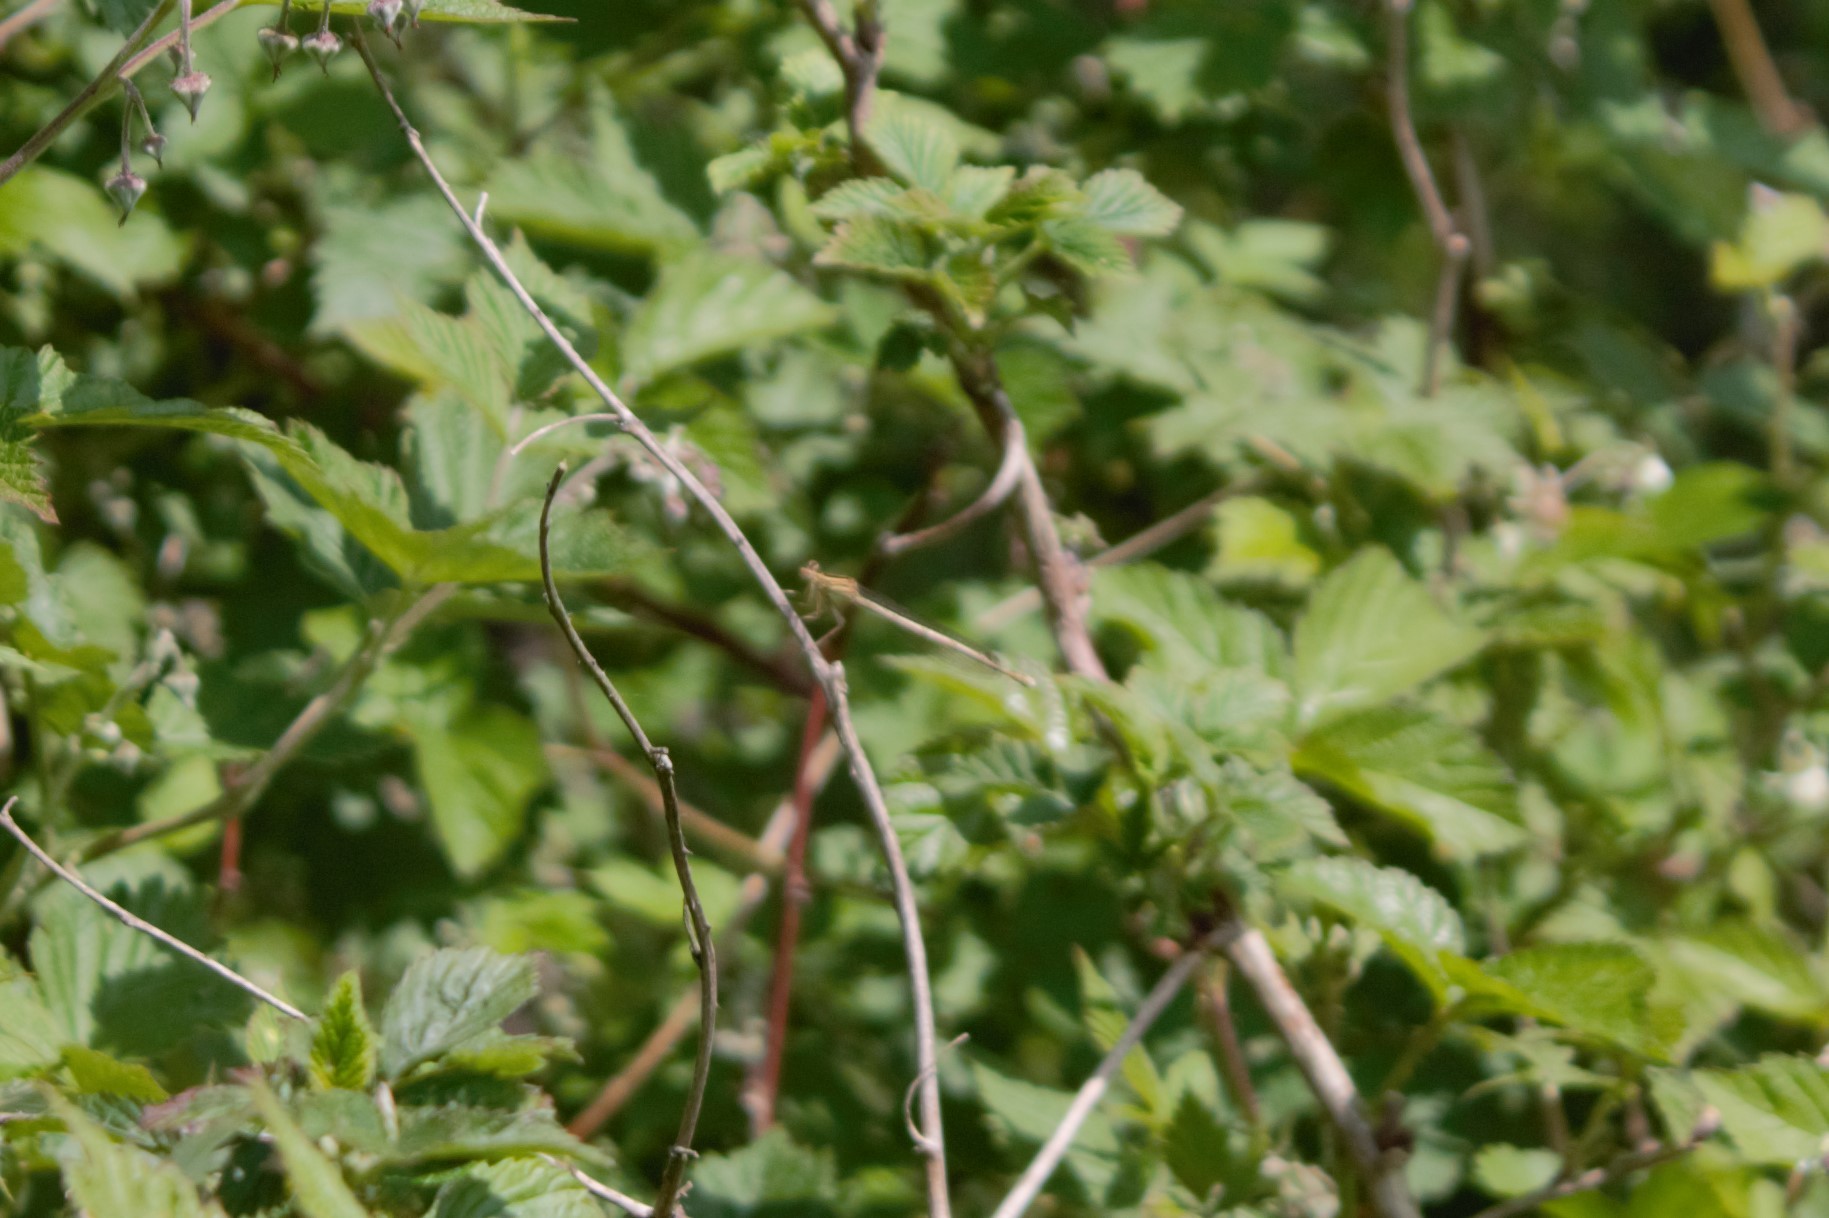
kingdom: Animalia
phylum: Arthropoda
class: Insecta
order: Odonata
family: Platycnemididae
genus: Platycnemis
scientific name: Platycnemis pennipes
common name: White-legged damselfly
